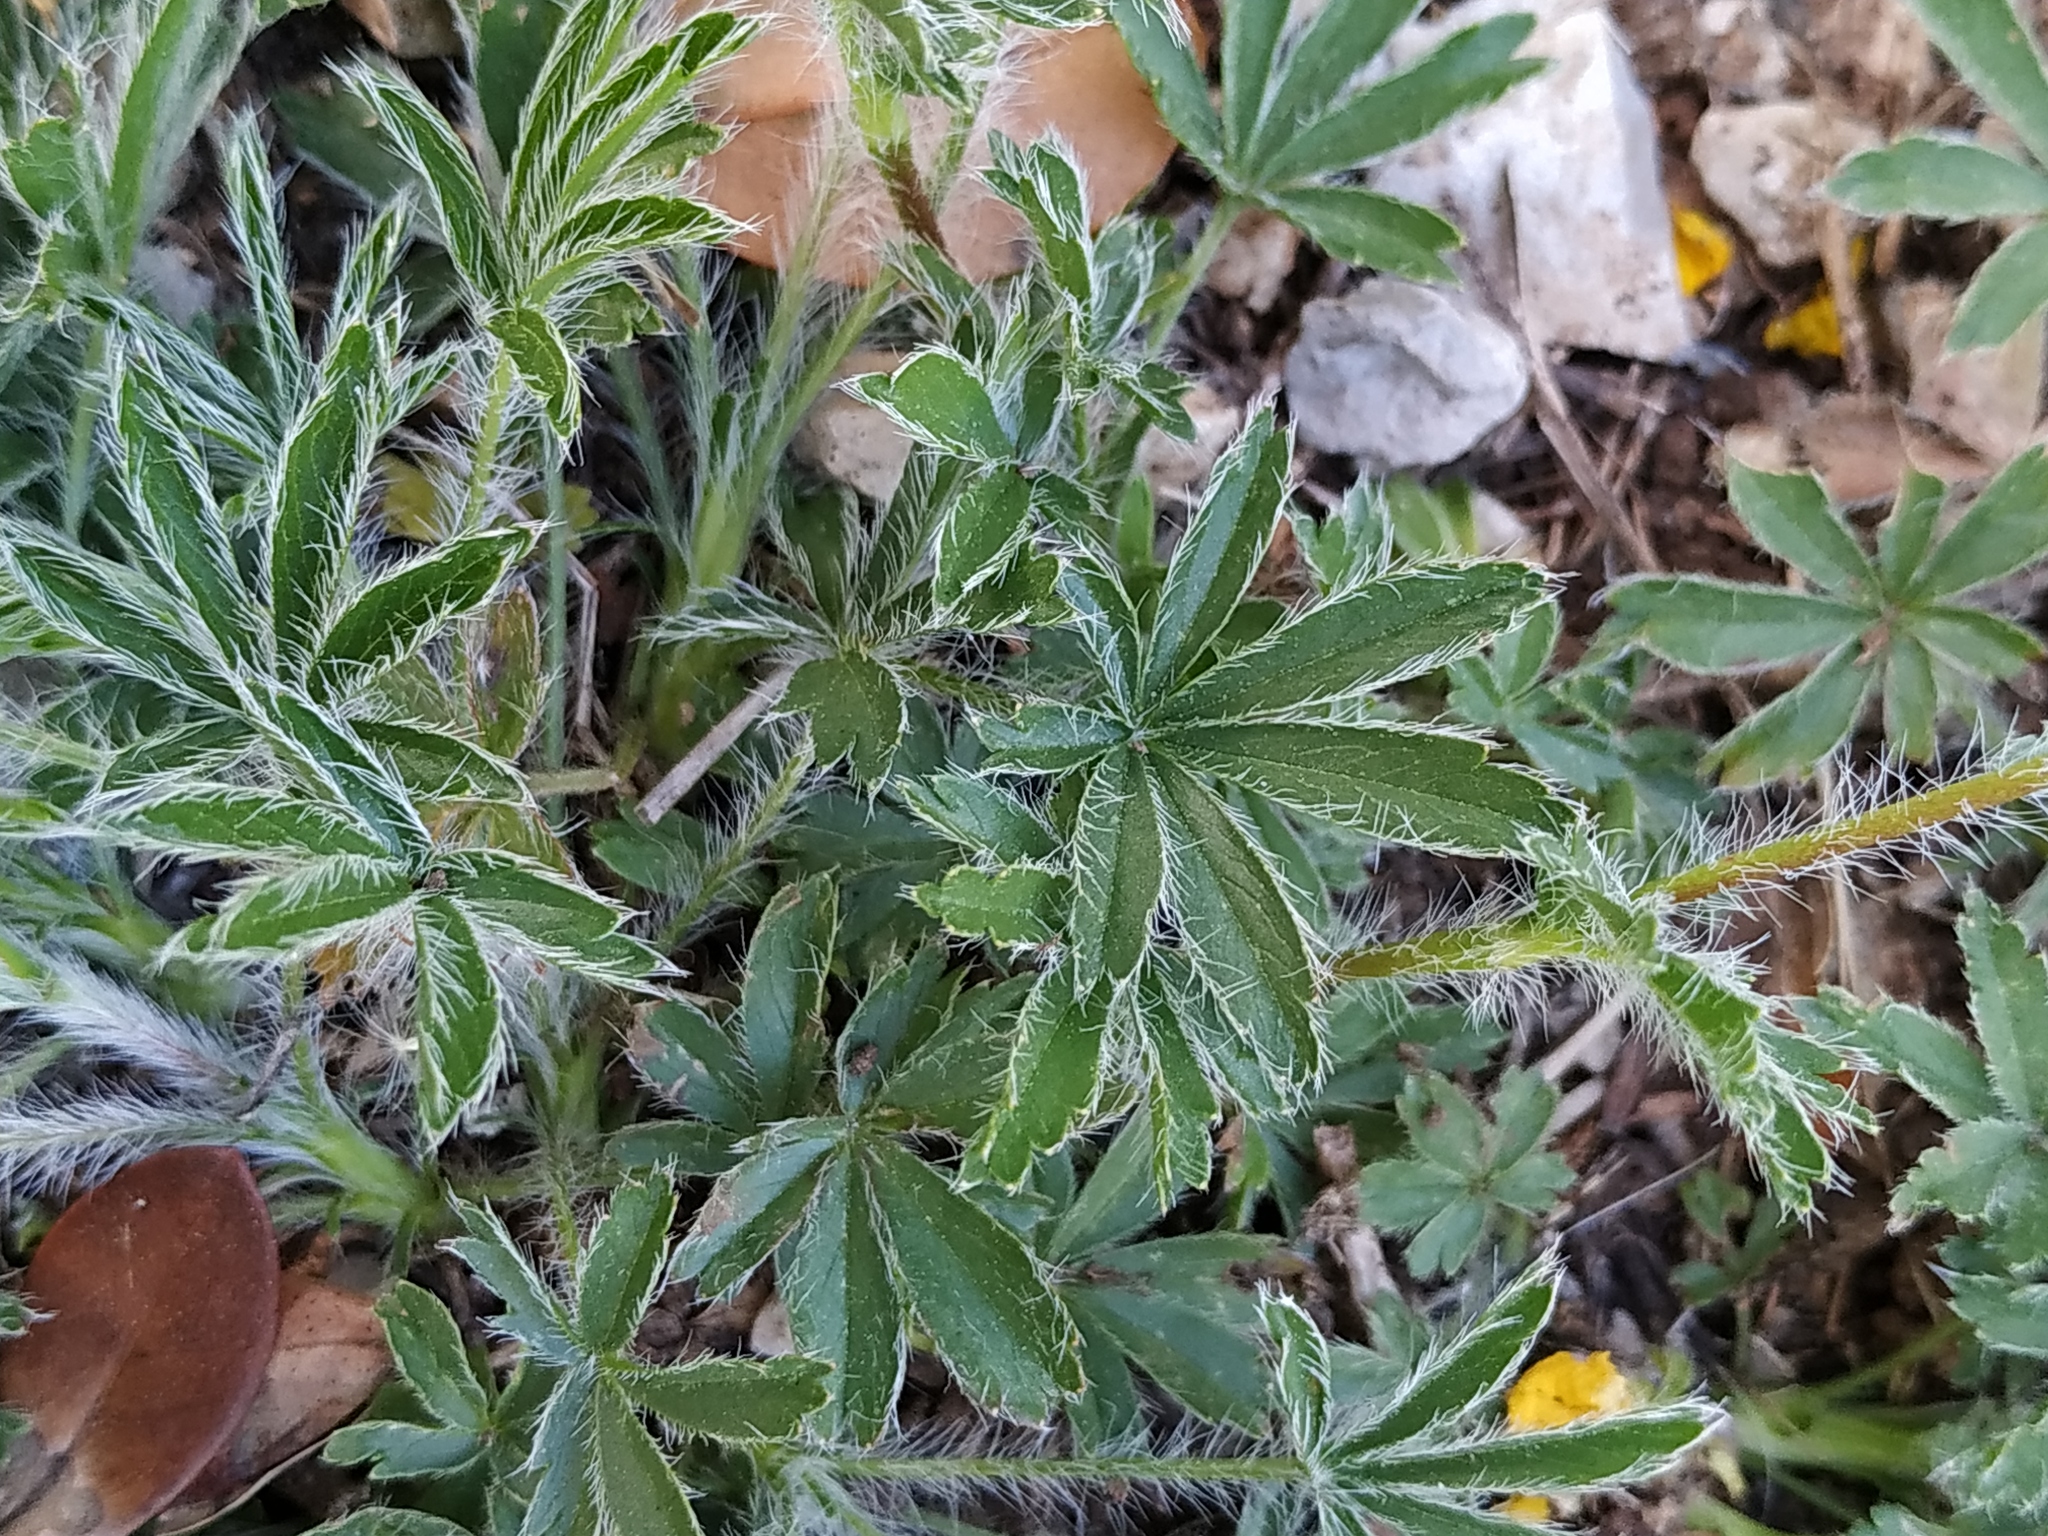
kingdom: Plantae
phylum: Tracheophyta
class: Magnoliopsida
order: Rosales
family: Rosaceae
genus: Potentilla
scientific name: Potentilla hirta
